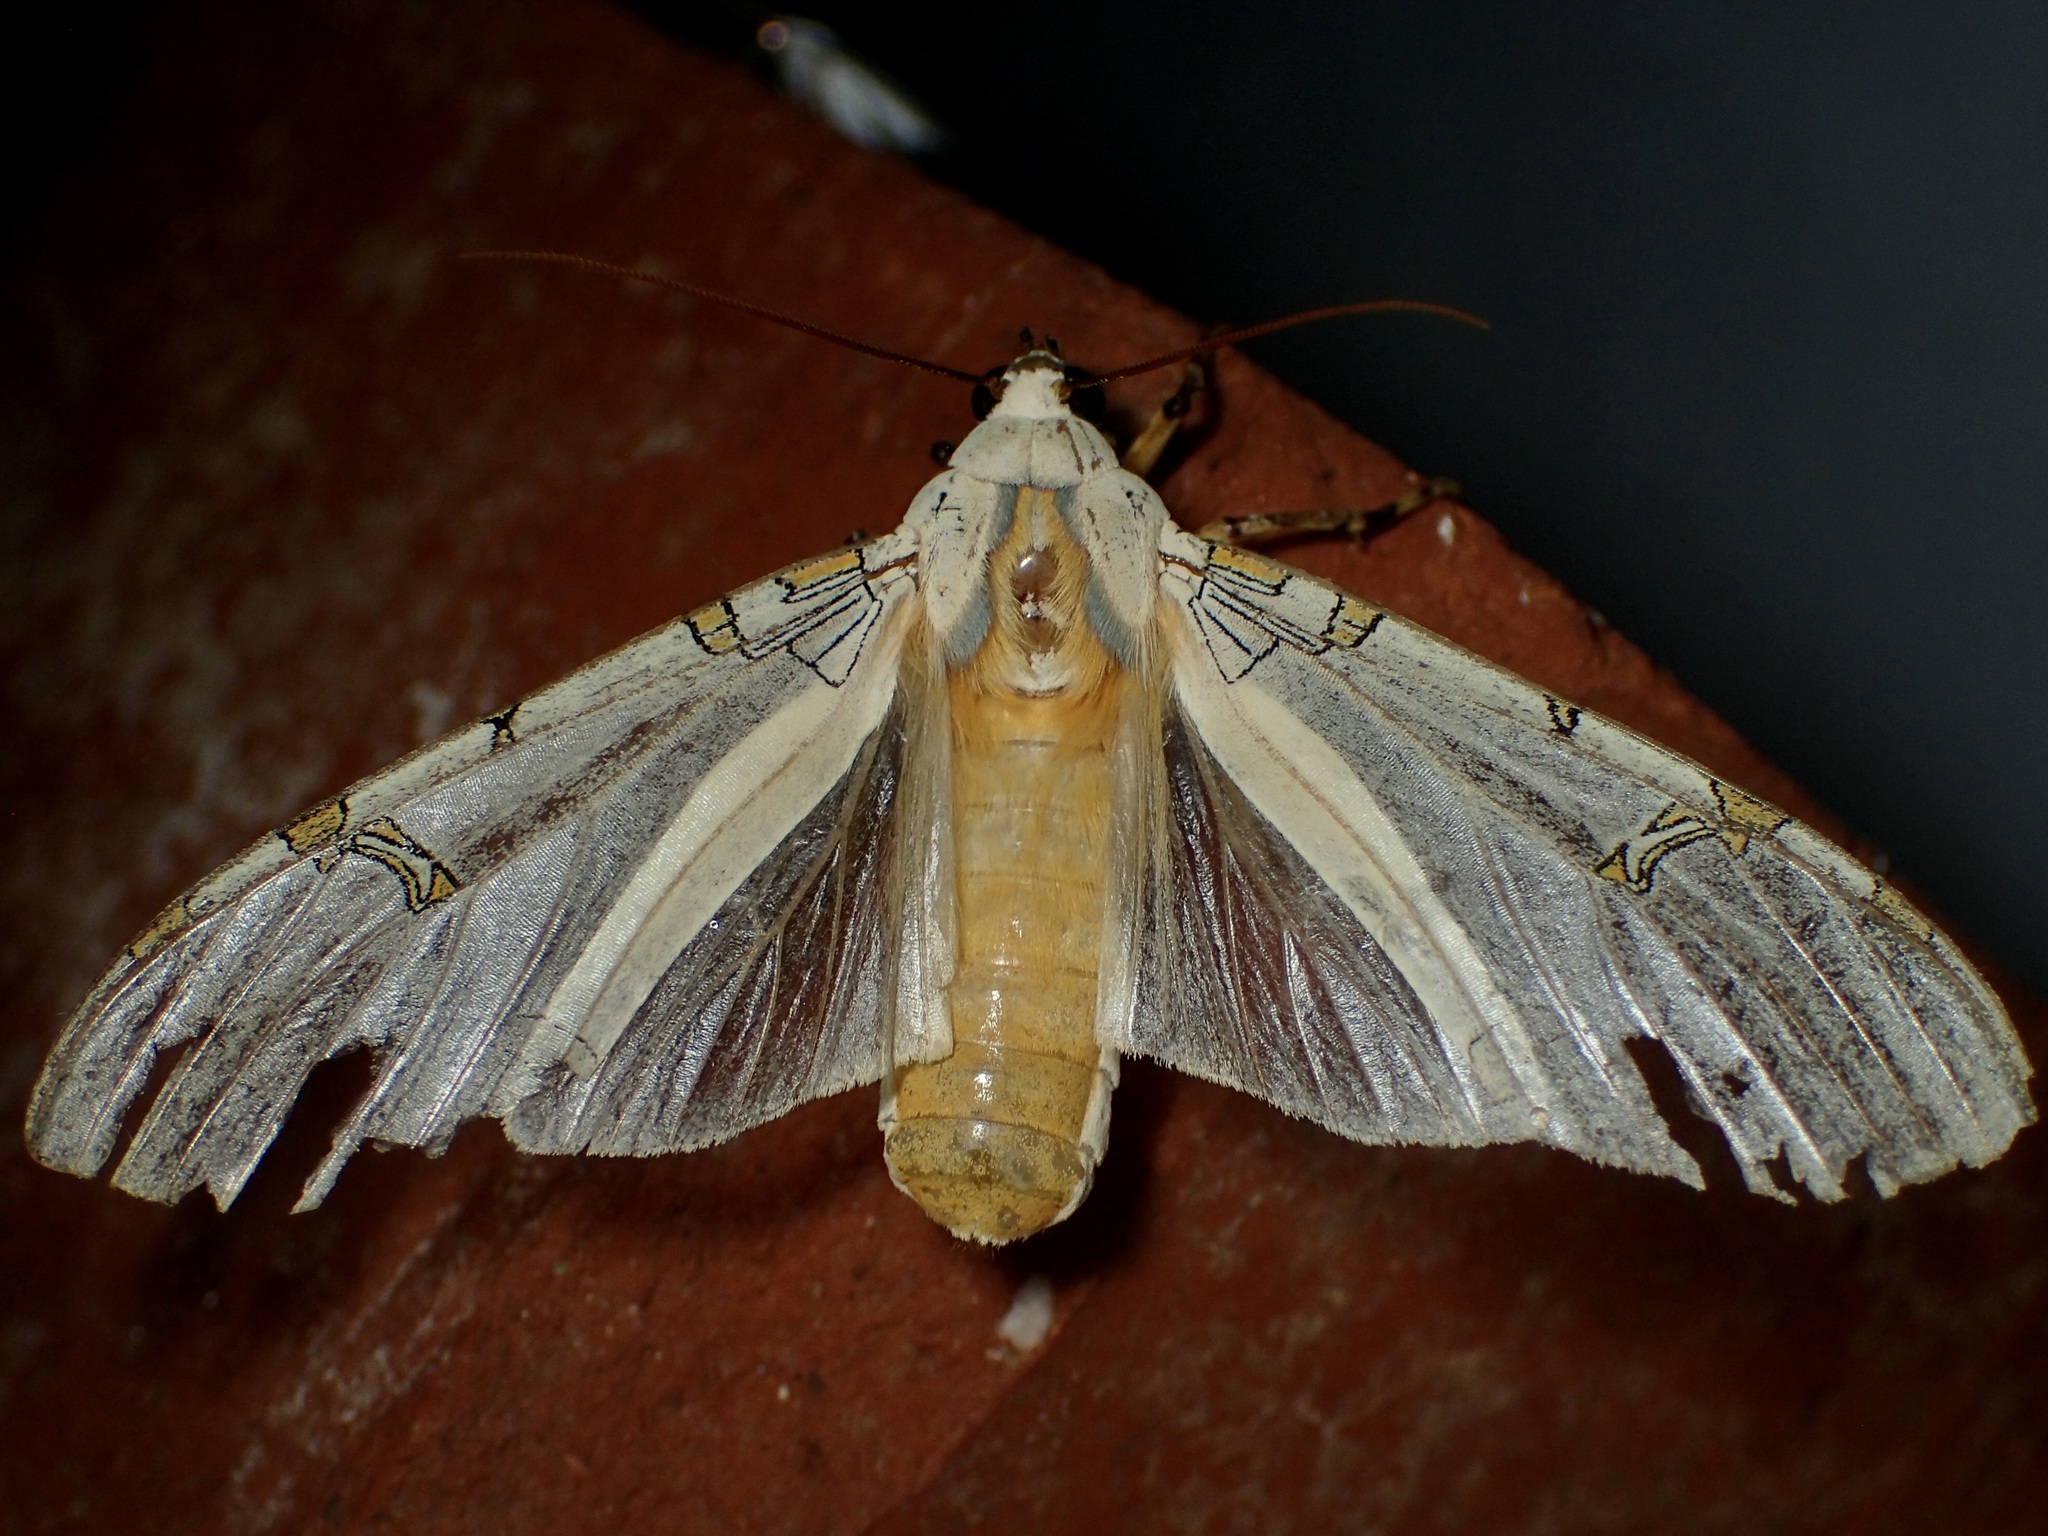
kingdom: Animalia
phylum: Arthropoda
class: Insecta
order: Lepidoptera
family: Erebidae
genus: Halysidota
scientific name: Halysidota davisii
